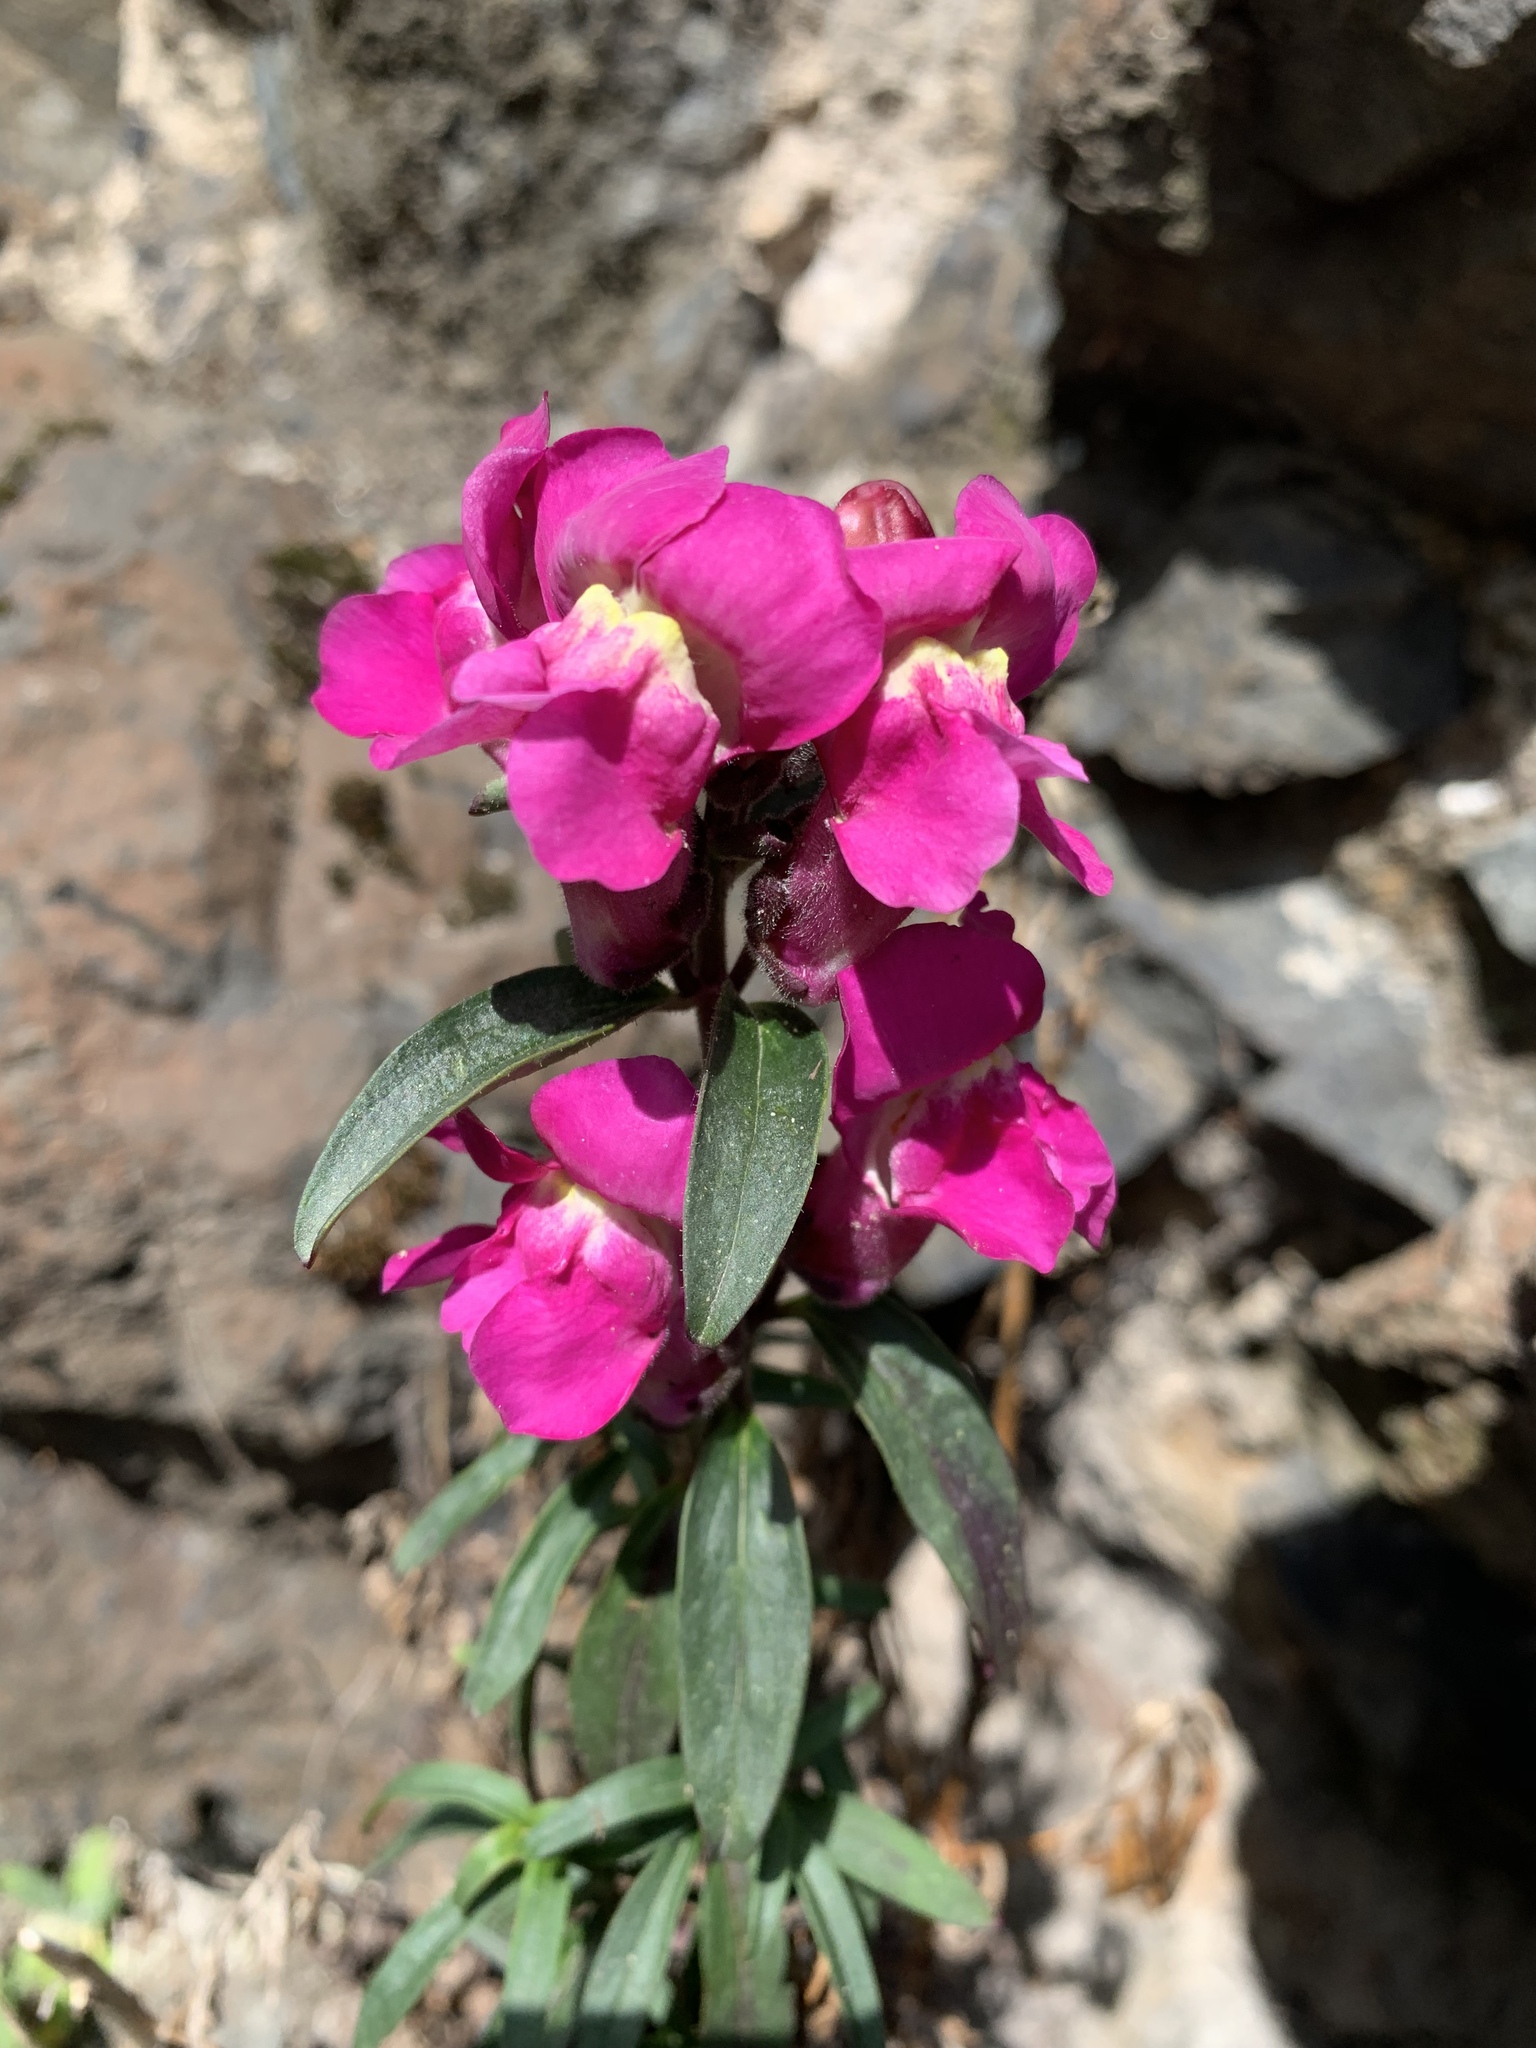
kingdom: Plantae
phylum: Tracheophyta
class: Magnoliopsida
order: Lamiales
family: Plantaginaceae
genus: Antirrhinum
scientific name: Antirrhinum majus
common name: Snapdragon
